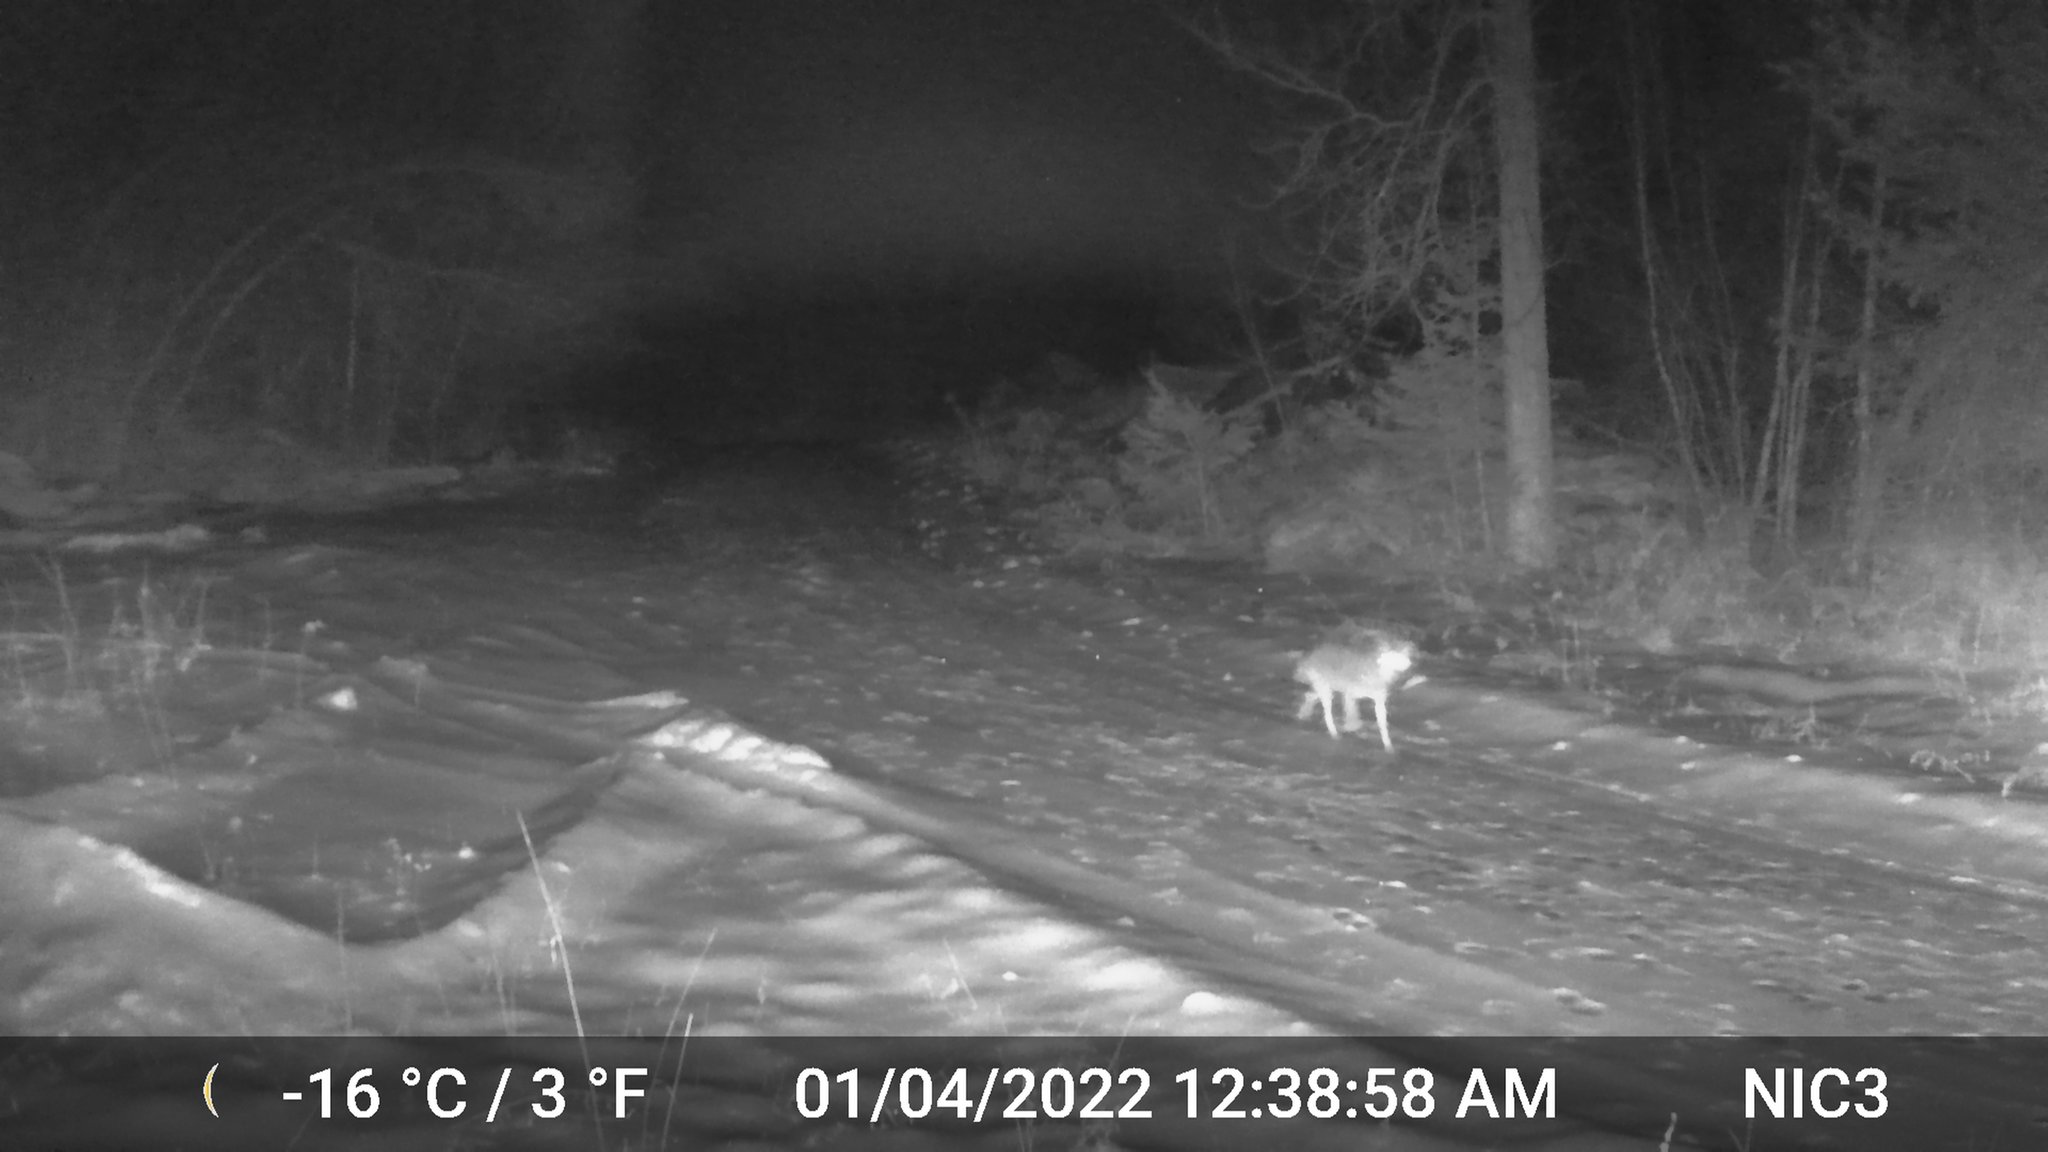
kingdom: Animalia
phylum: Chordata
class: Mammalia
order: Carnivora
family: Canidae
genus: Canis
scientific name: Canis latrans
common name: Coyote
